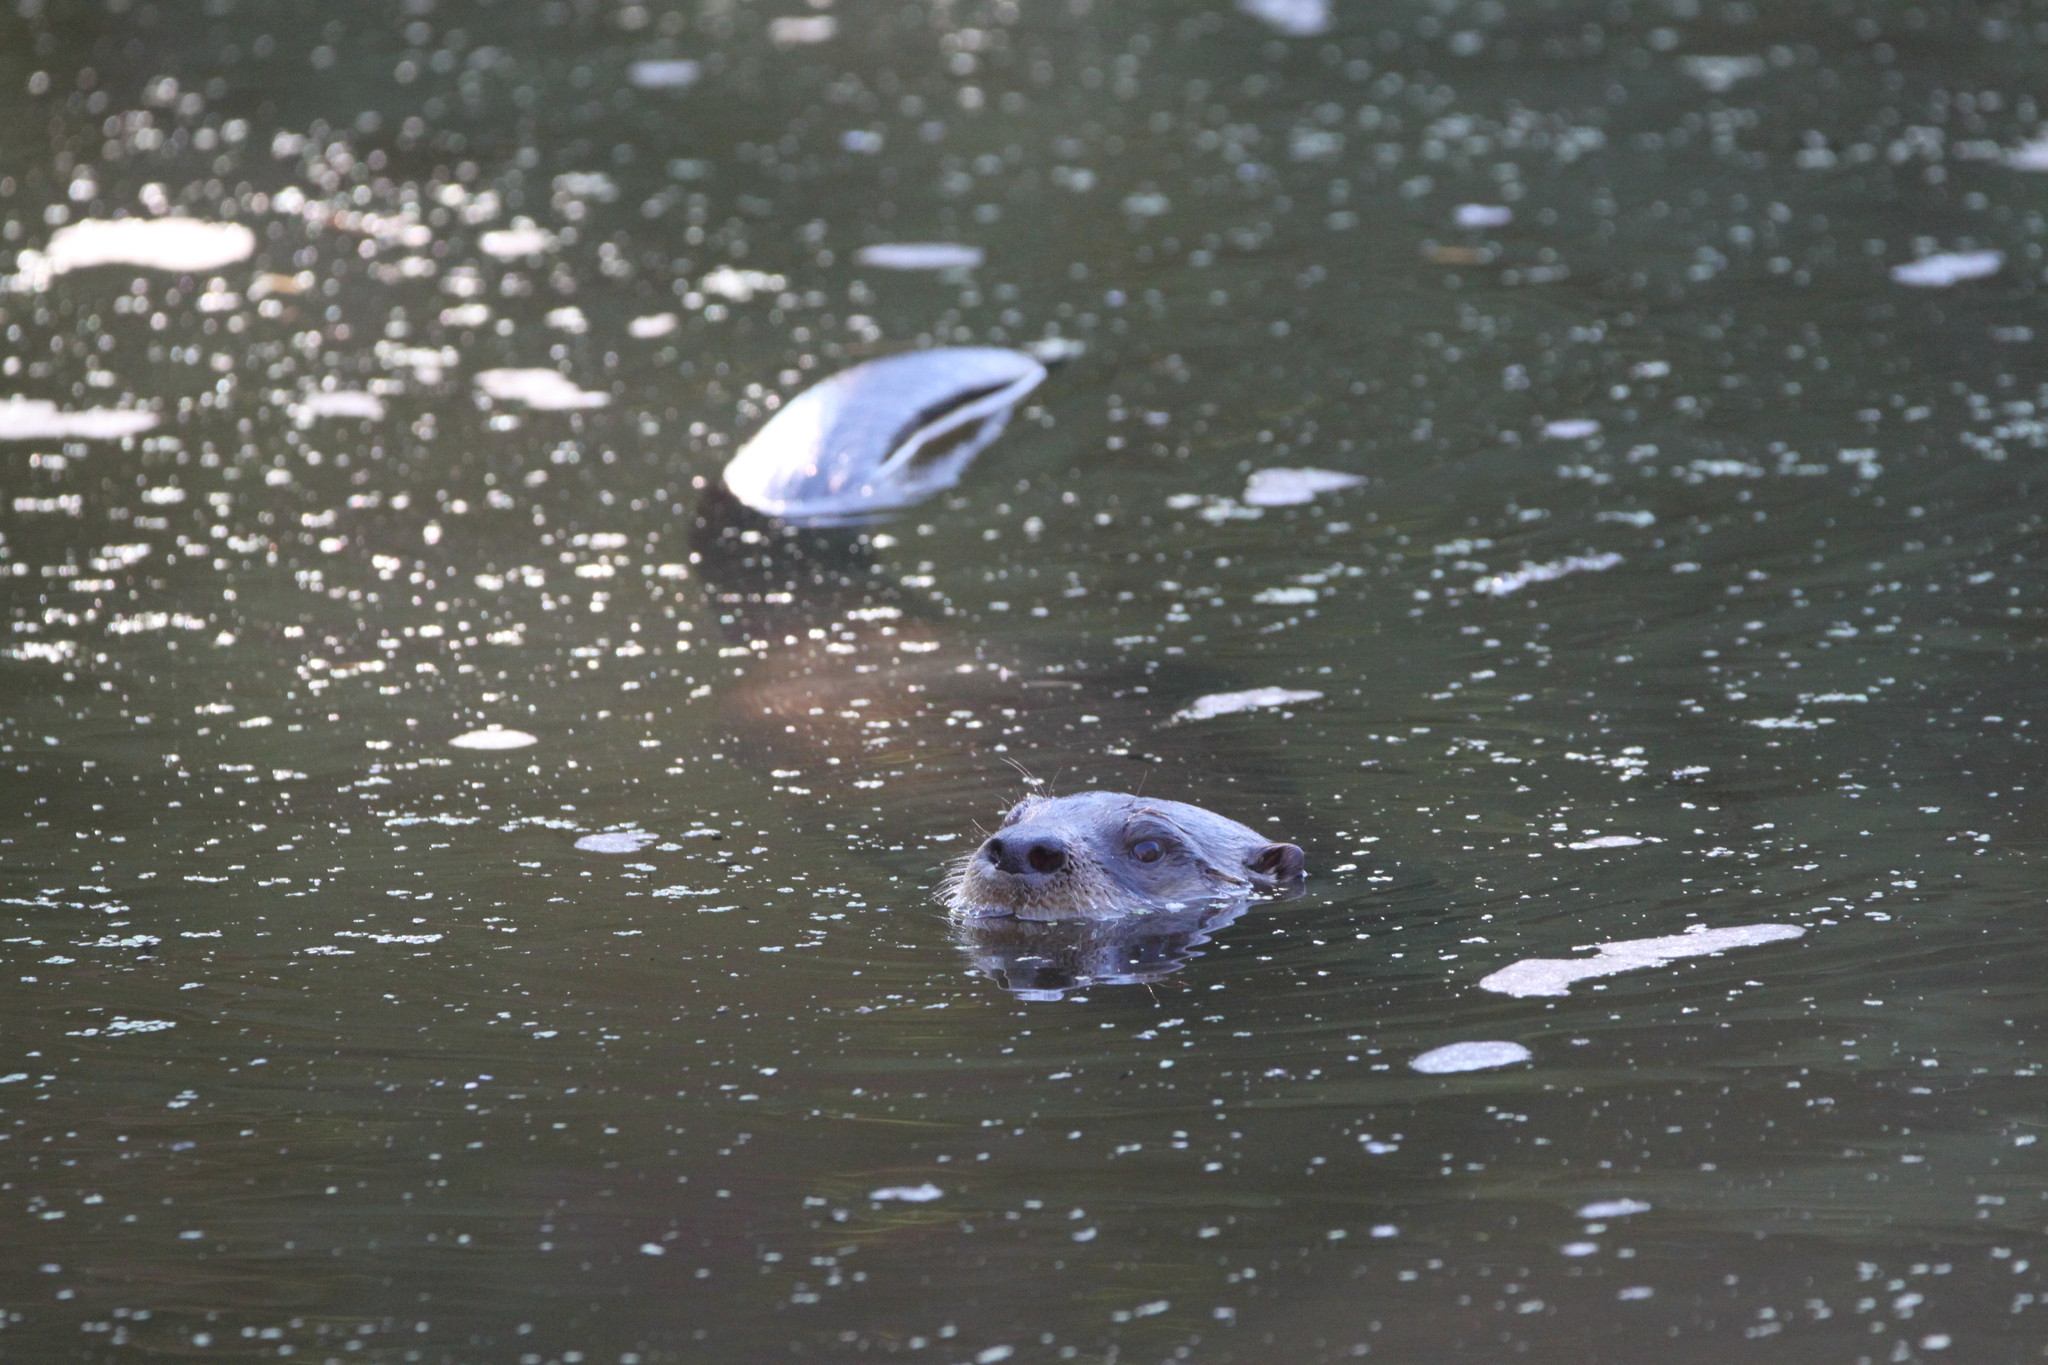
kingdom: Animalia
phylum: Chordata
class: Mammalia
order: Carnivora
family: Mustelidae
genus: Lontra
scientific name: Lontra canadensis
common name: North american river otter
